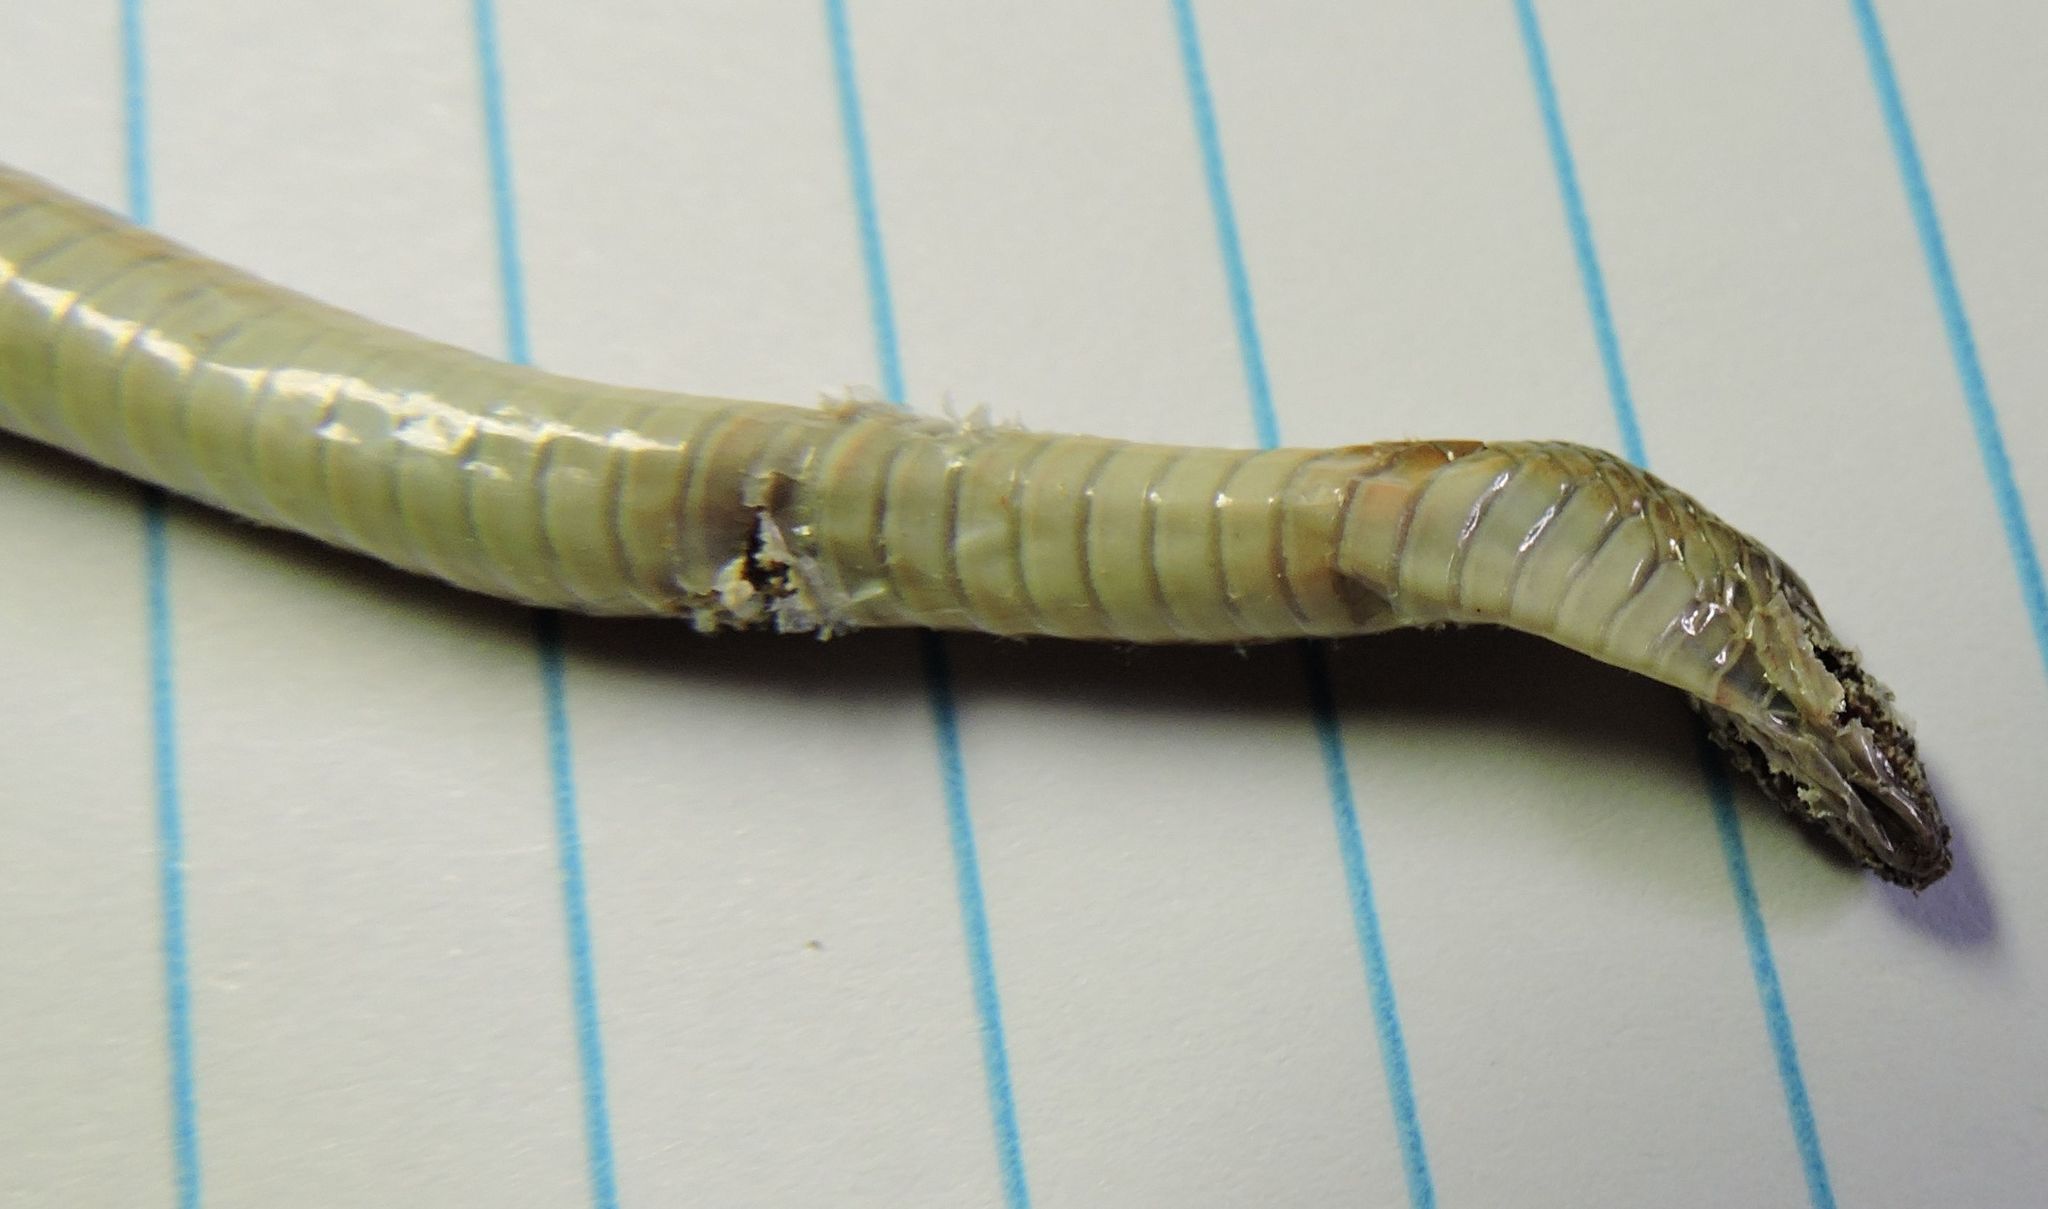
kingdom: Animalia
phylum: Chordata
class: Squamata
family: Colubridae
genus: Haldea
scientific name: Haldea striatula
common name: Rough earth snake
